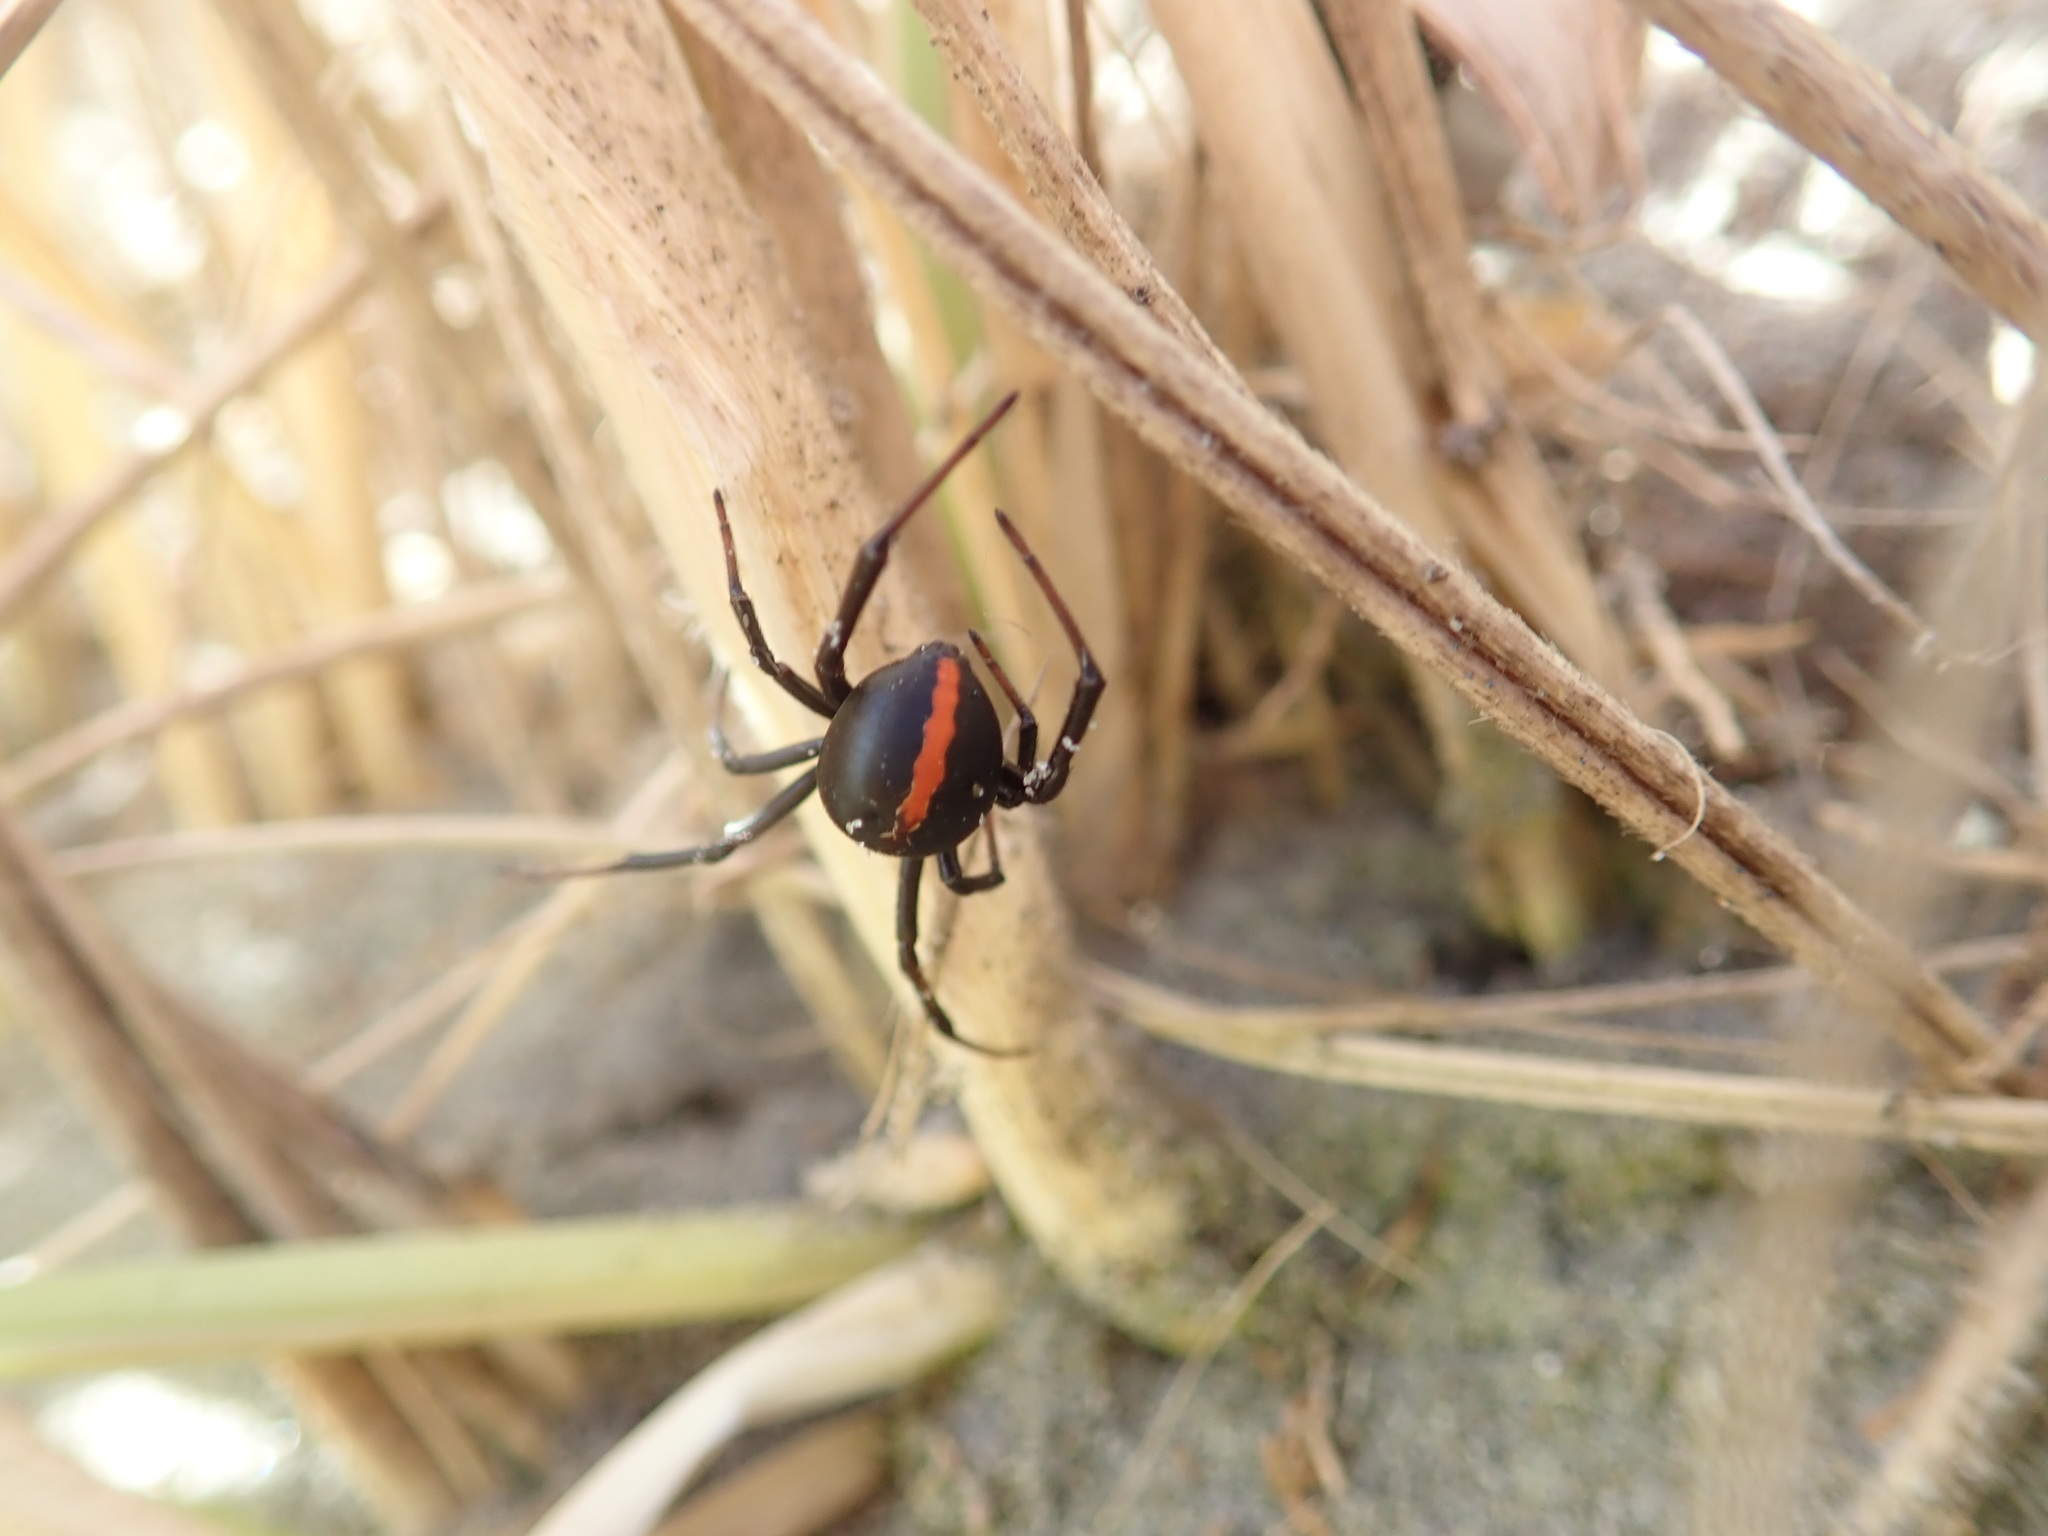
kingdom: Animalia
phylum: Arthropoda
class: Arachnida
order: Araneae
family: Theridiidae
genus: Latrodectus
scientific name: Latrodectus katipo
